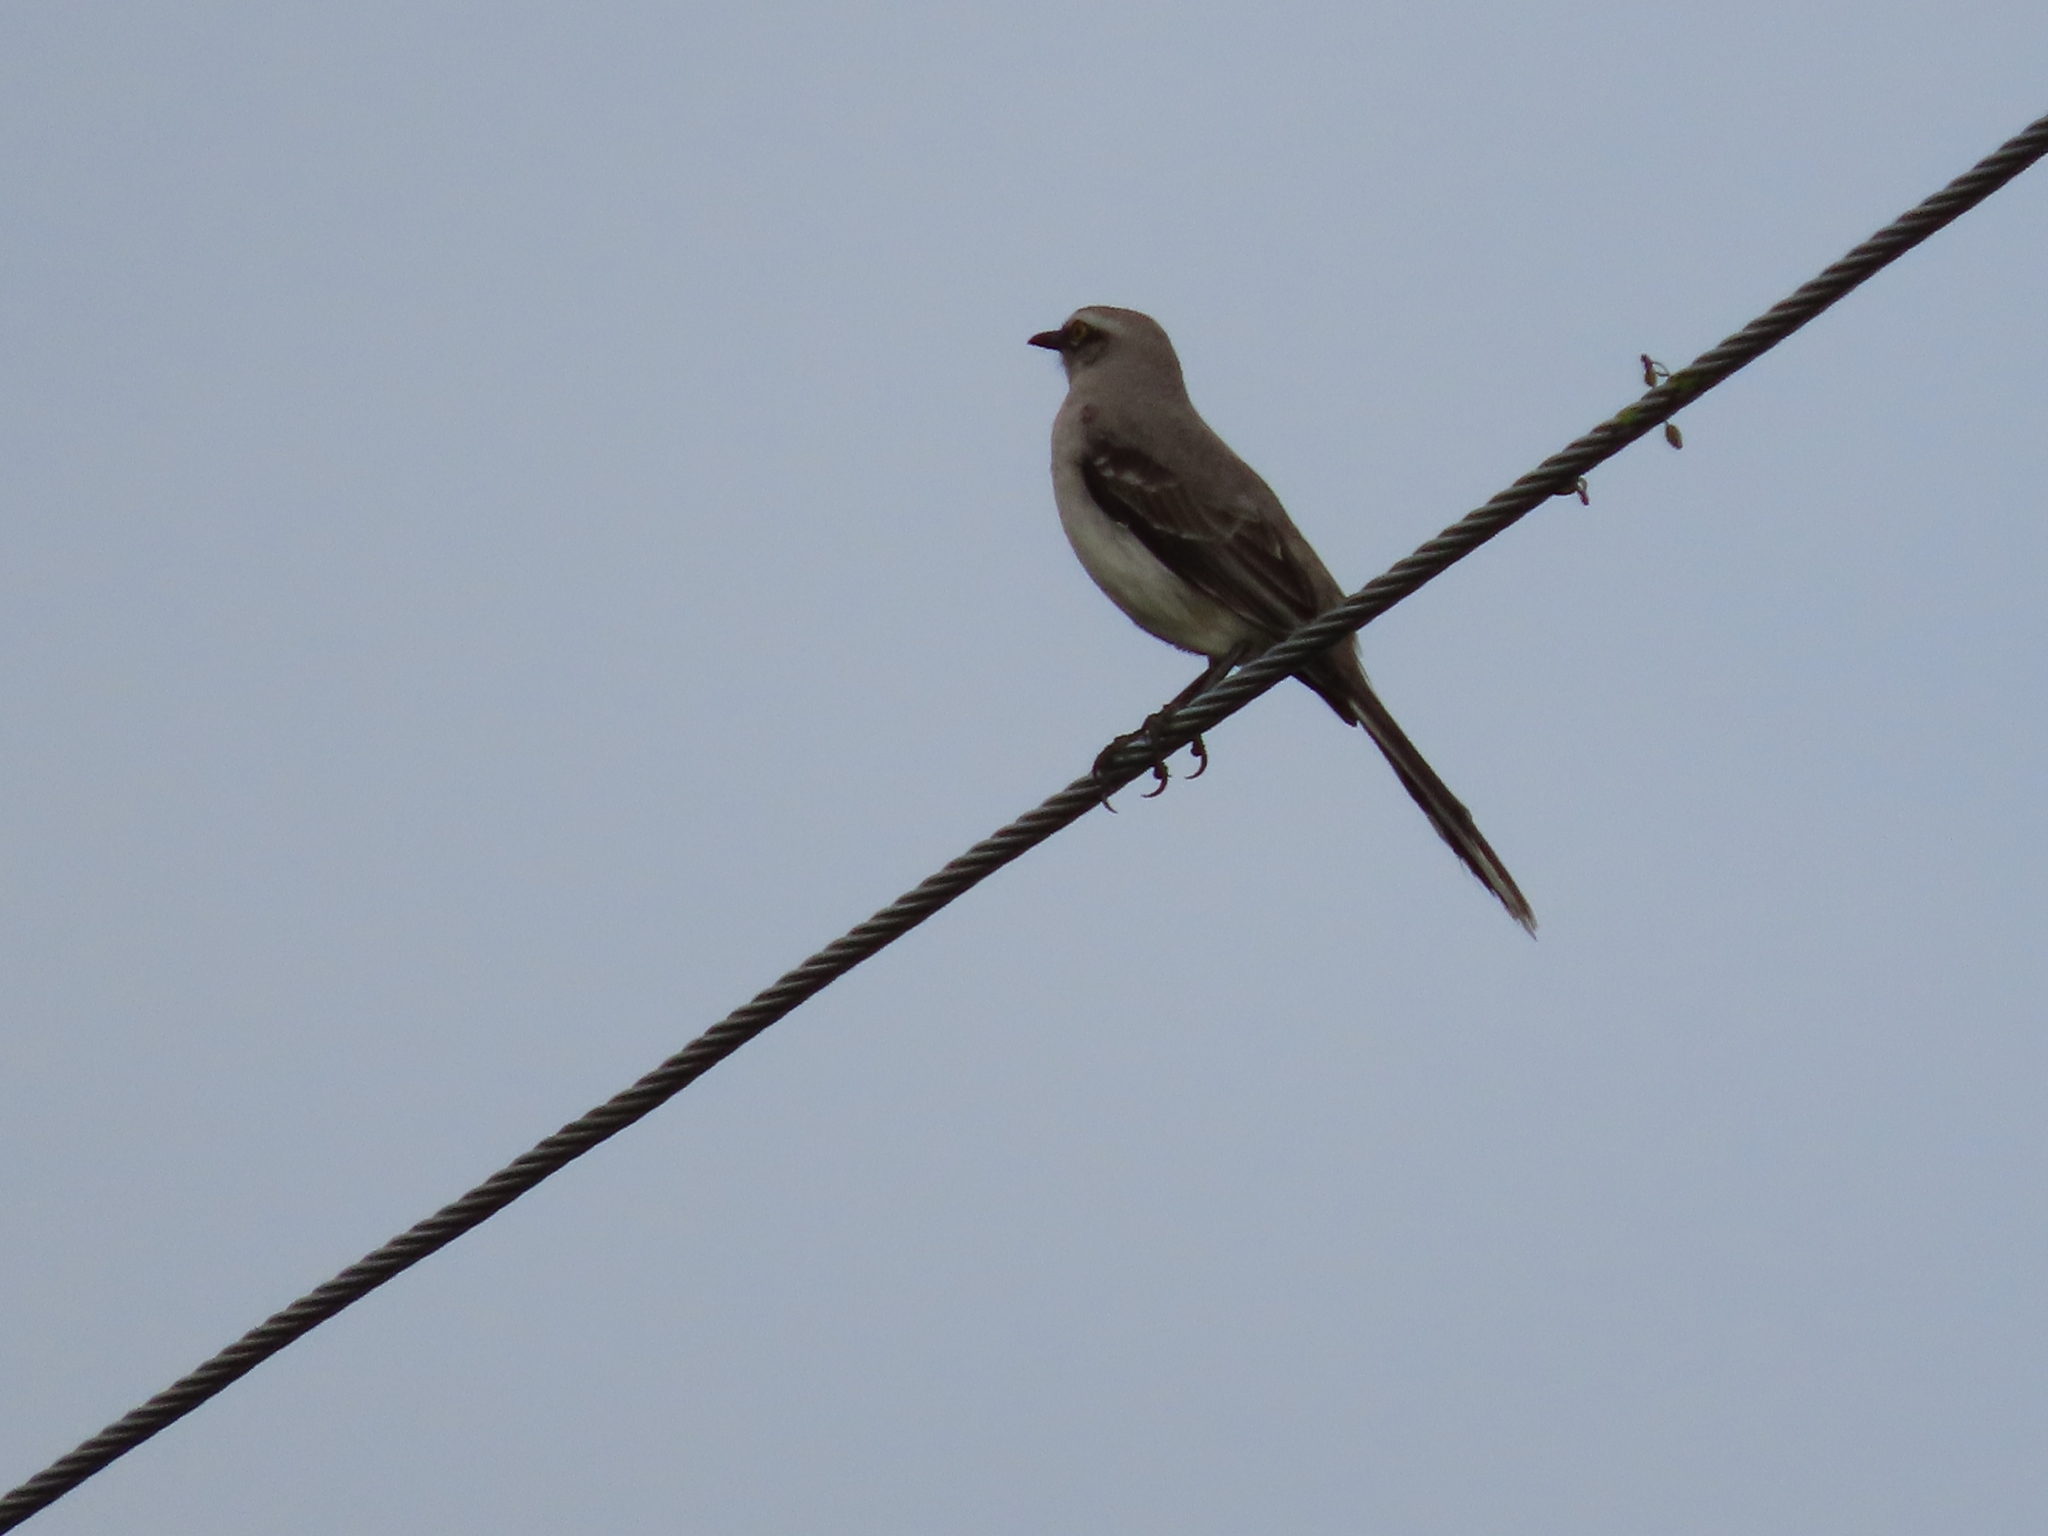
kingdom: Animalia
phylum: Chordata
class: Aves
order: Passeriformes
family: Mimidae
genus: Mimus
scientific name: Mimus gilvus
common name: Tropical mockingbird
